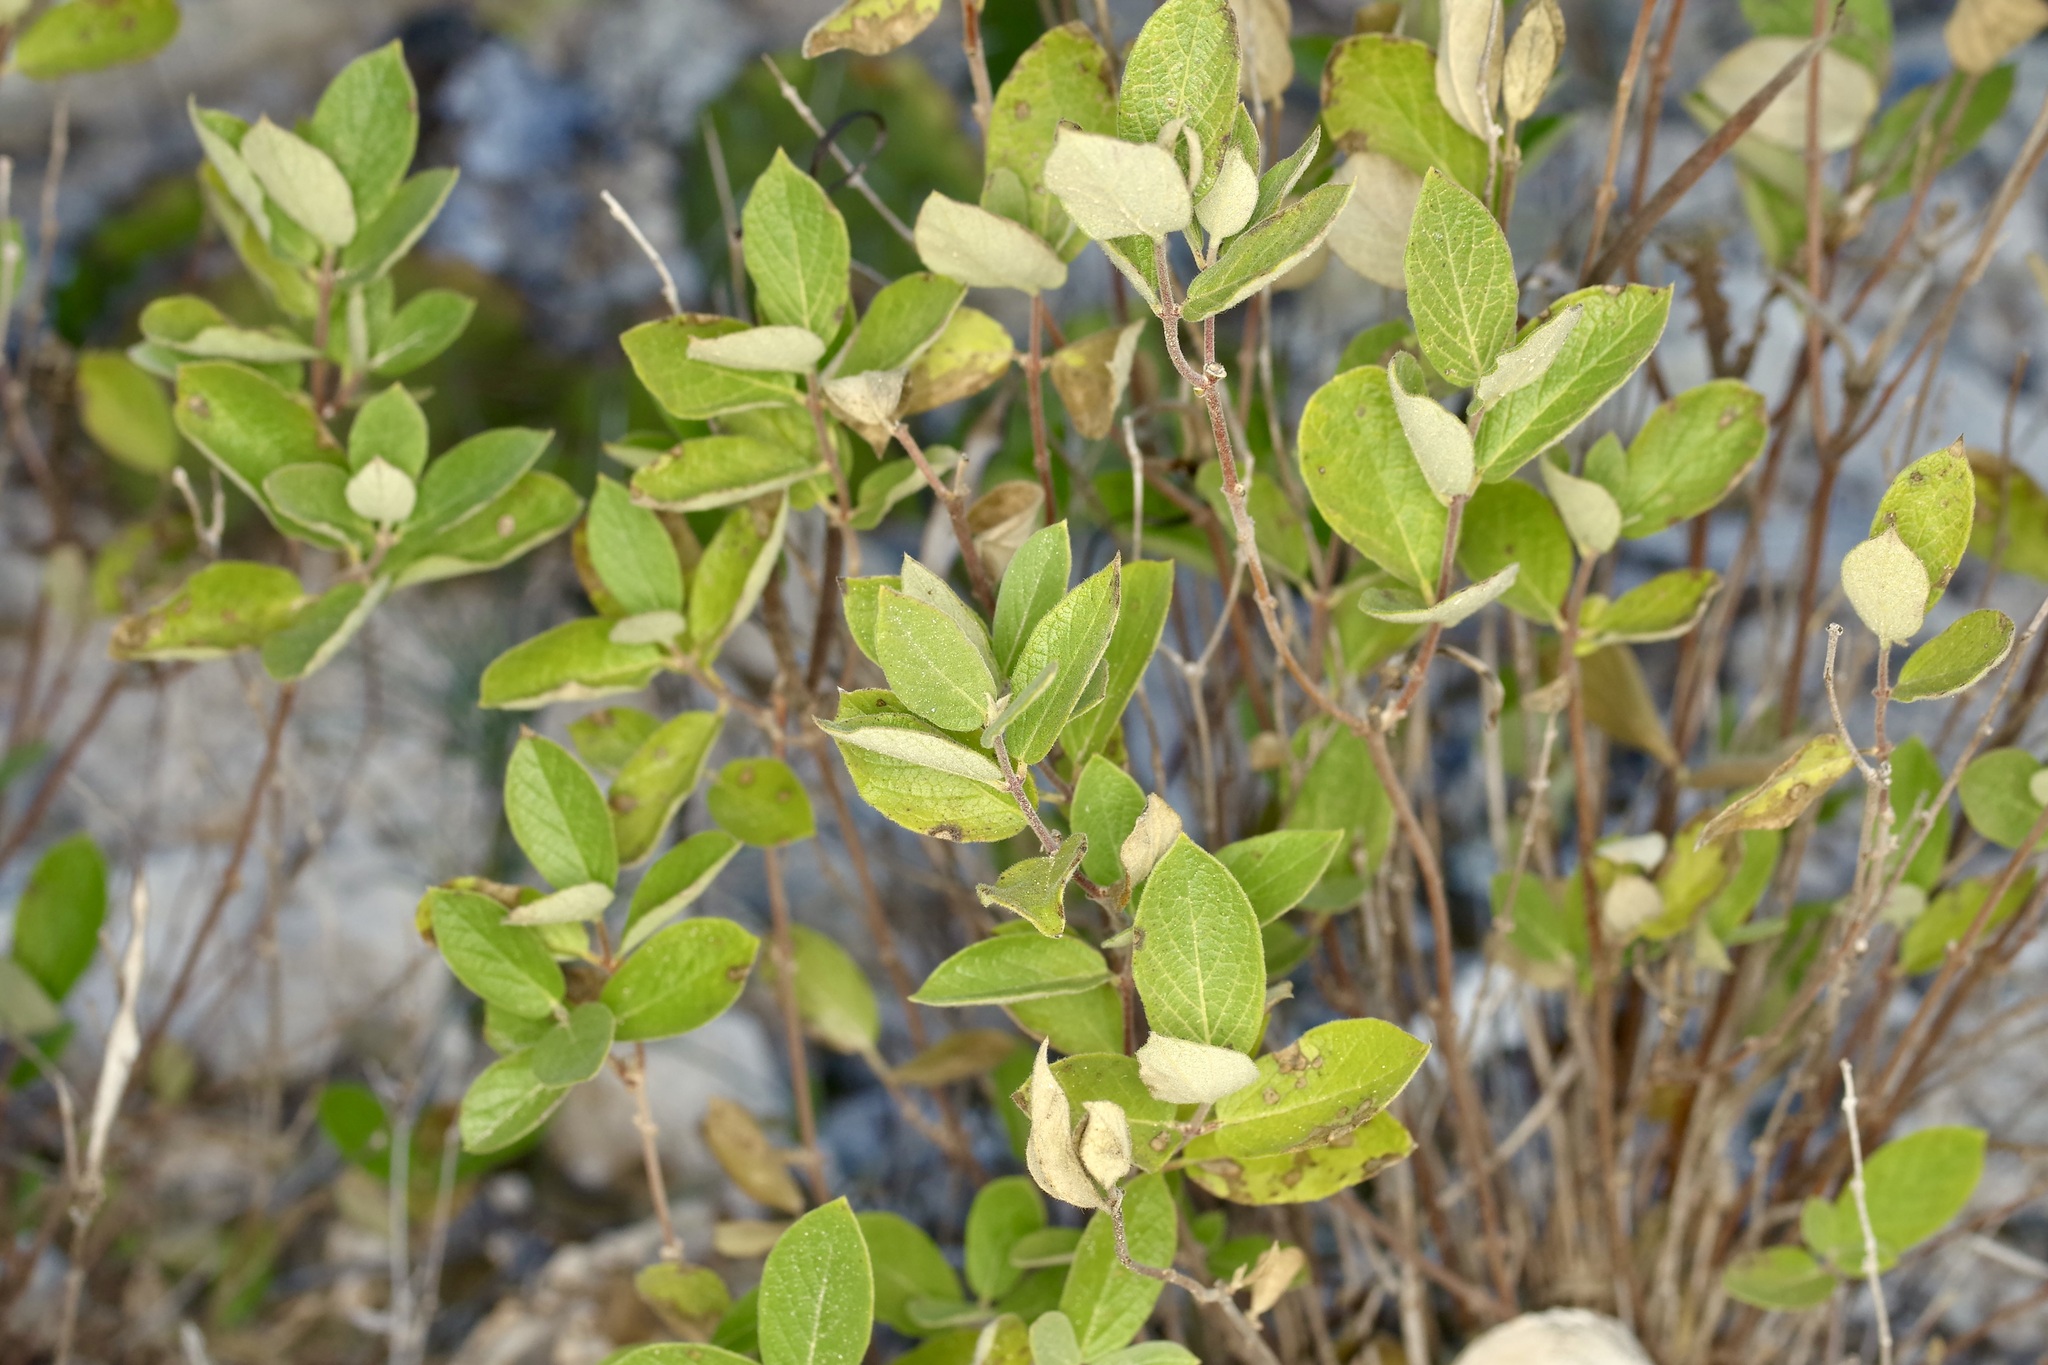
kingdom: Plantae
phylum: Tracheophyta
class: Magnoliopsida
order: Gentianales
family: Apocynaceae
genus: Mandevilla
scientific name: Mandevilla macrosiphon
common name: Plateau rocktrumpet
